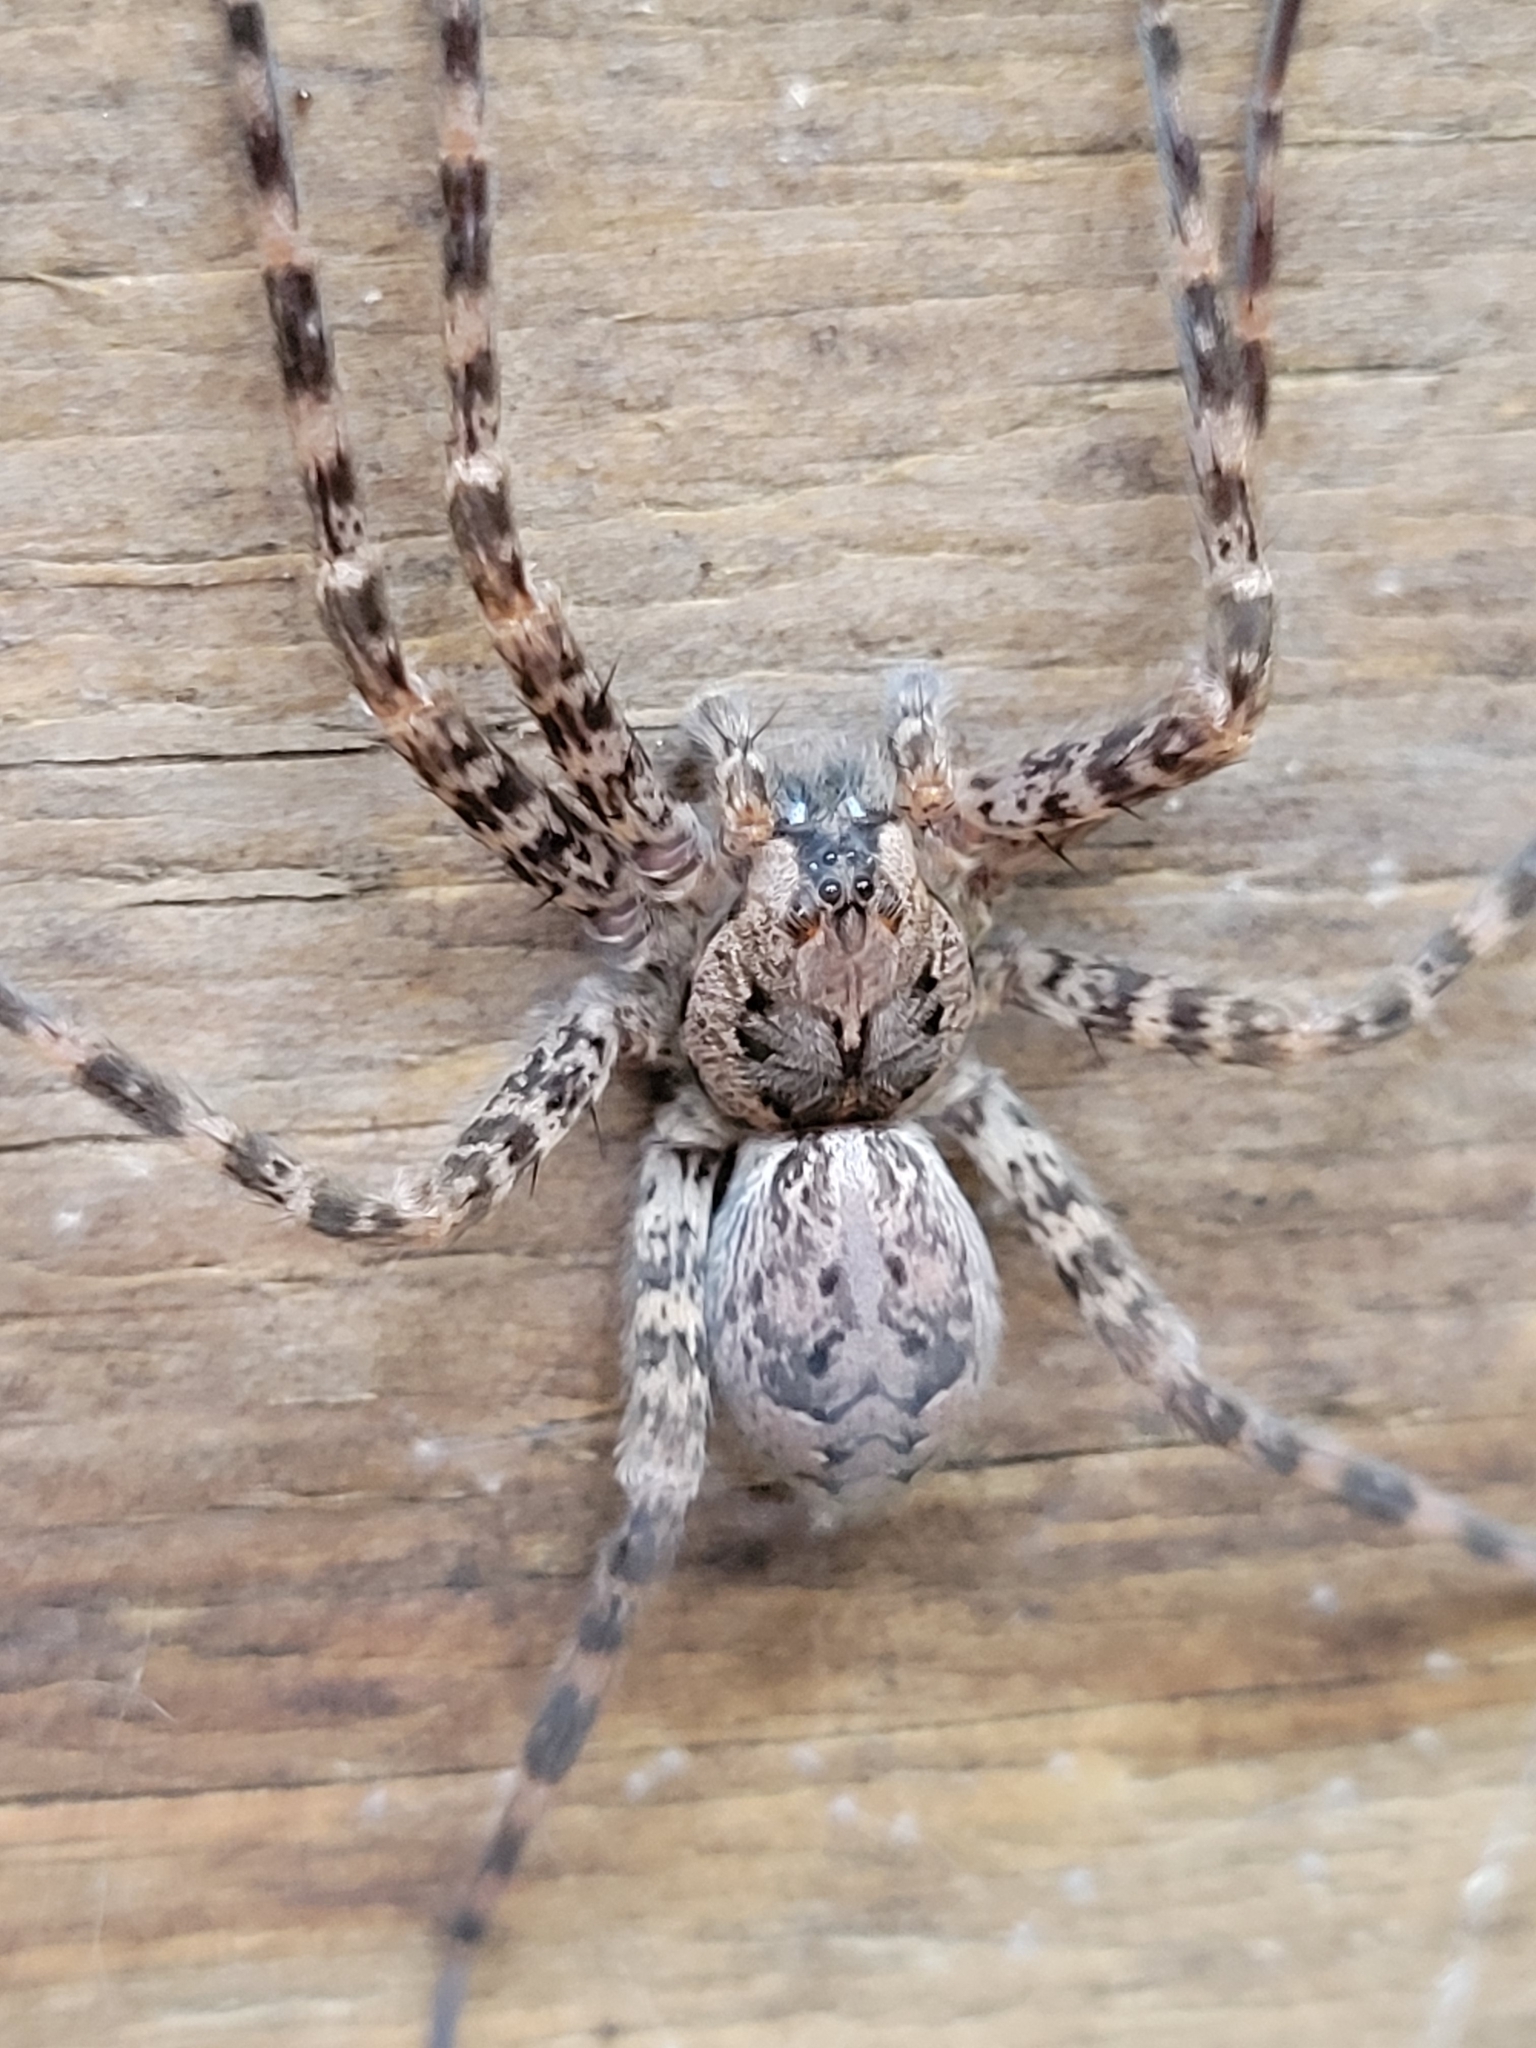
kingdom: Animalia
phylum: Arthropoda
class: Arachnida
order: Araneae
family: Pisauridae
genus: Dolomedes
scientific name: Dolomedes tenebrosus
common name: Dark fishing spider
